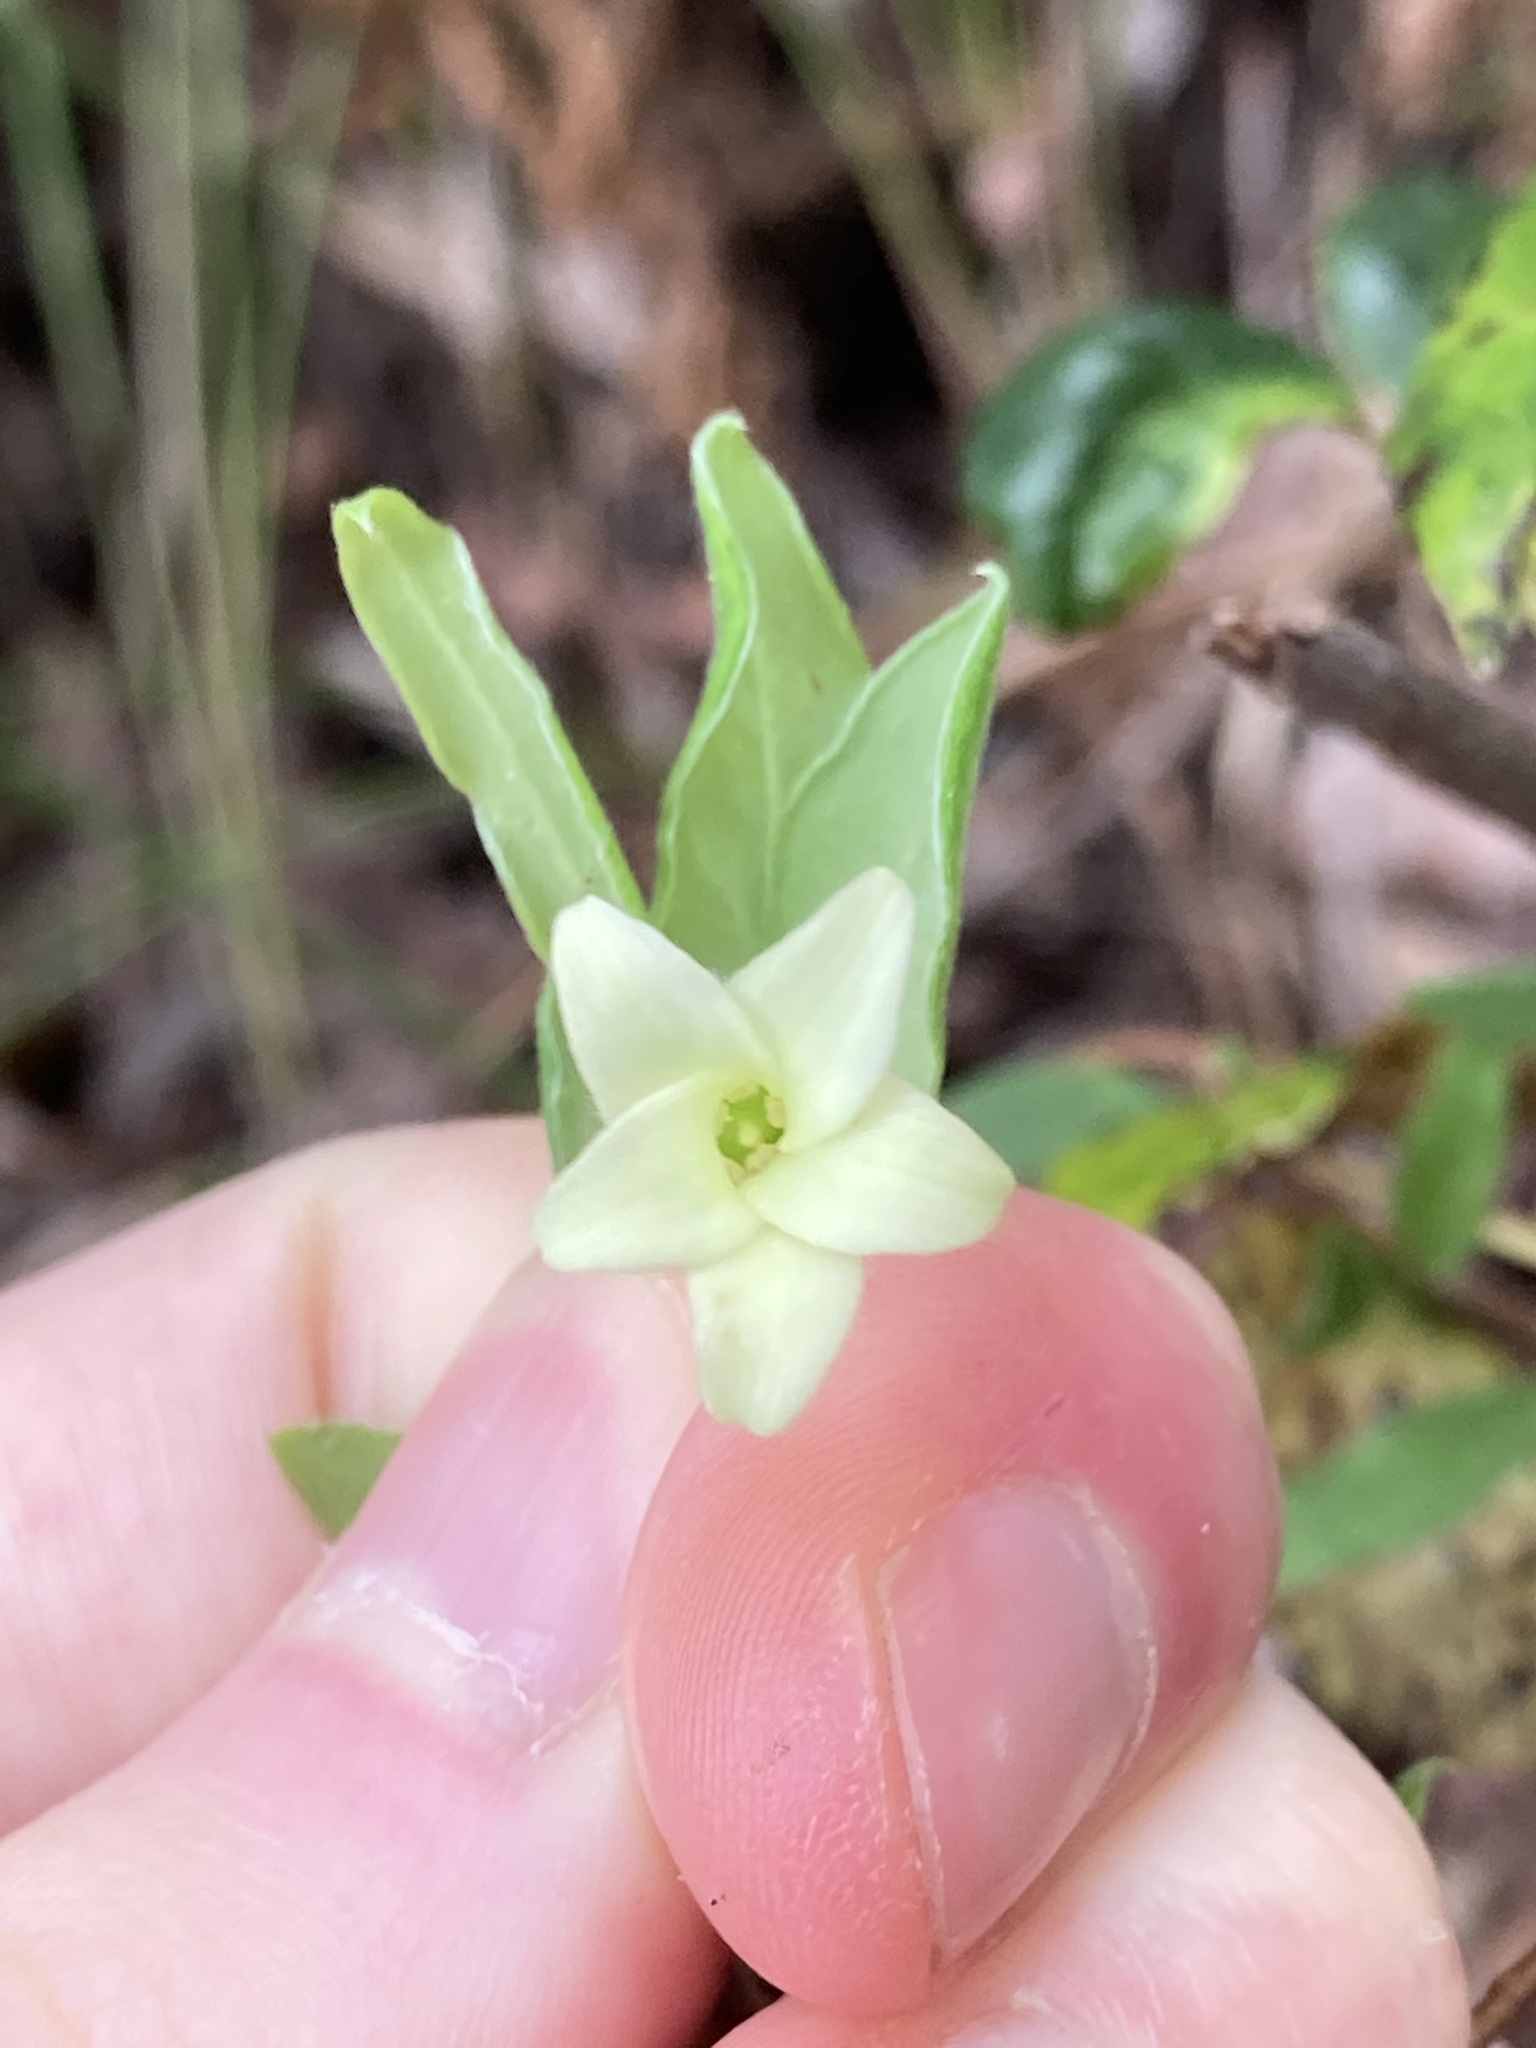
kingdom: Plantae
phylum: Tracheophyta
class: Magnoliopsida
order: Apiales
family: Pittosporaceae
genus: Billardiera
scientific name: Billardiera scandens
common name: Apple-berry
